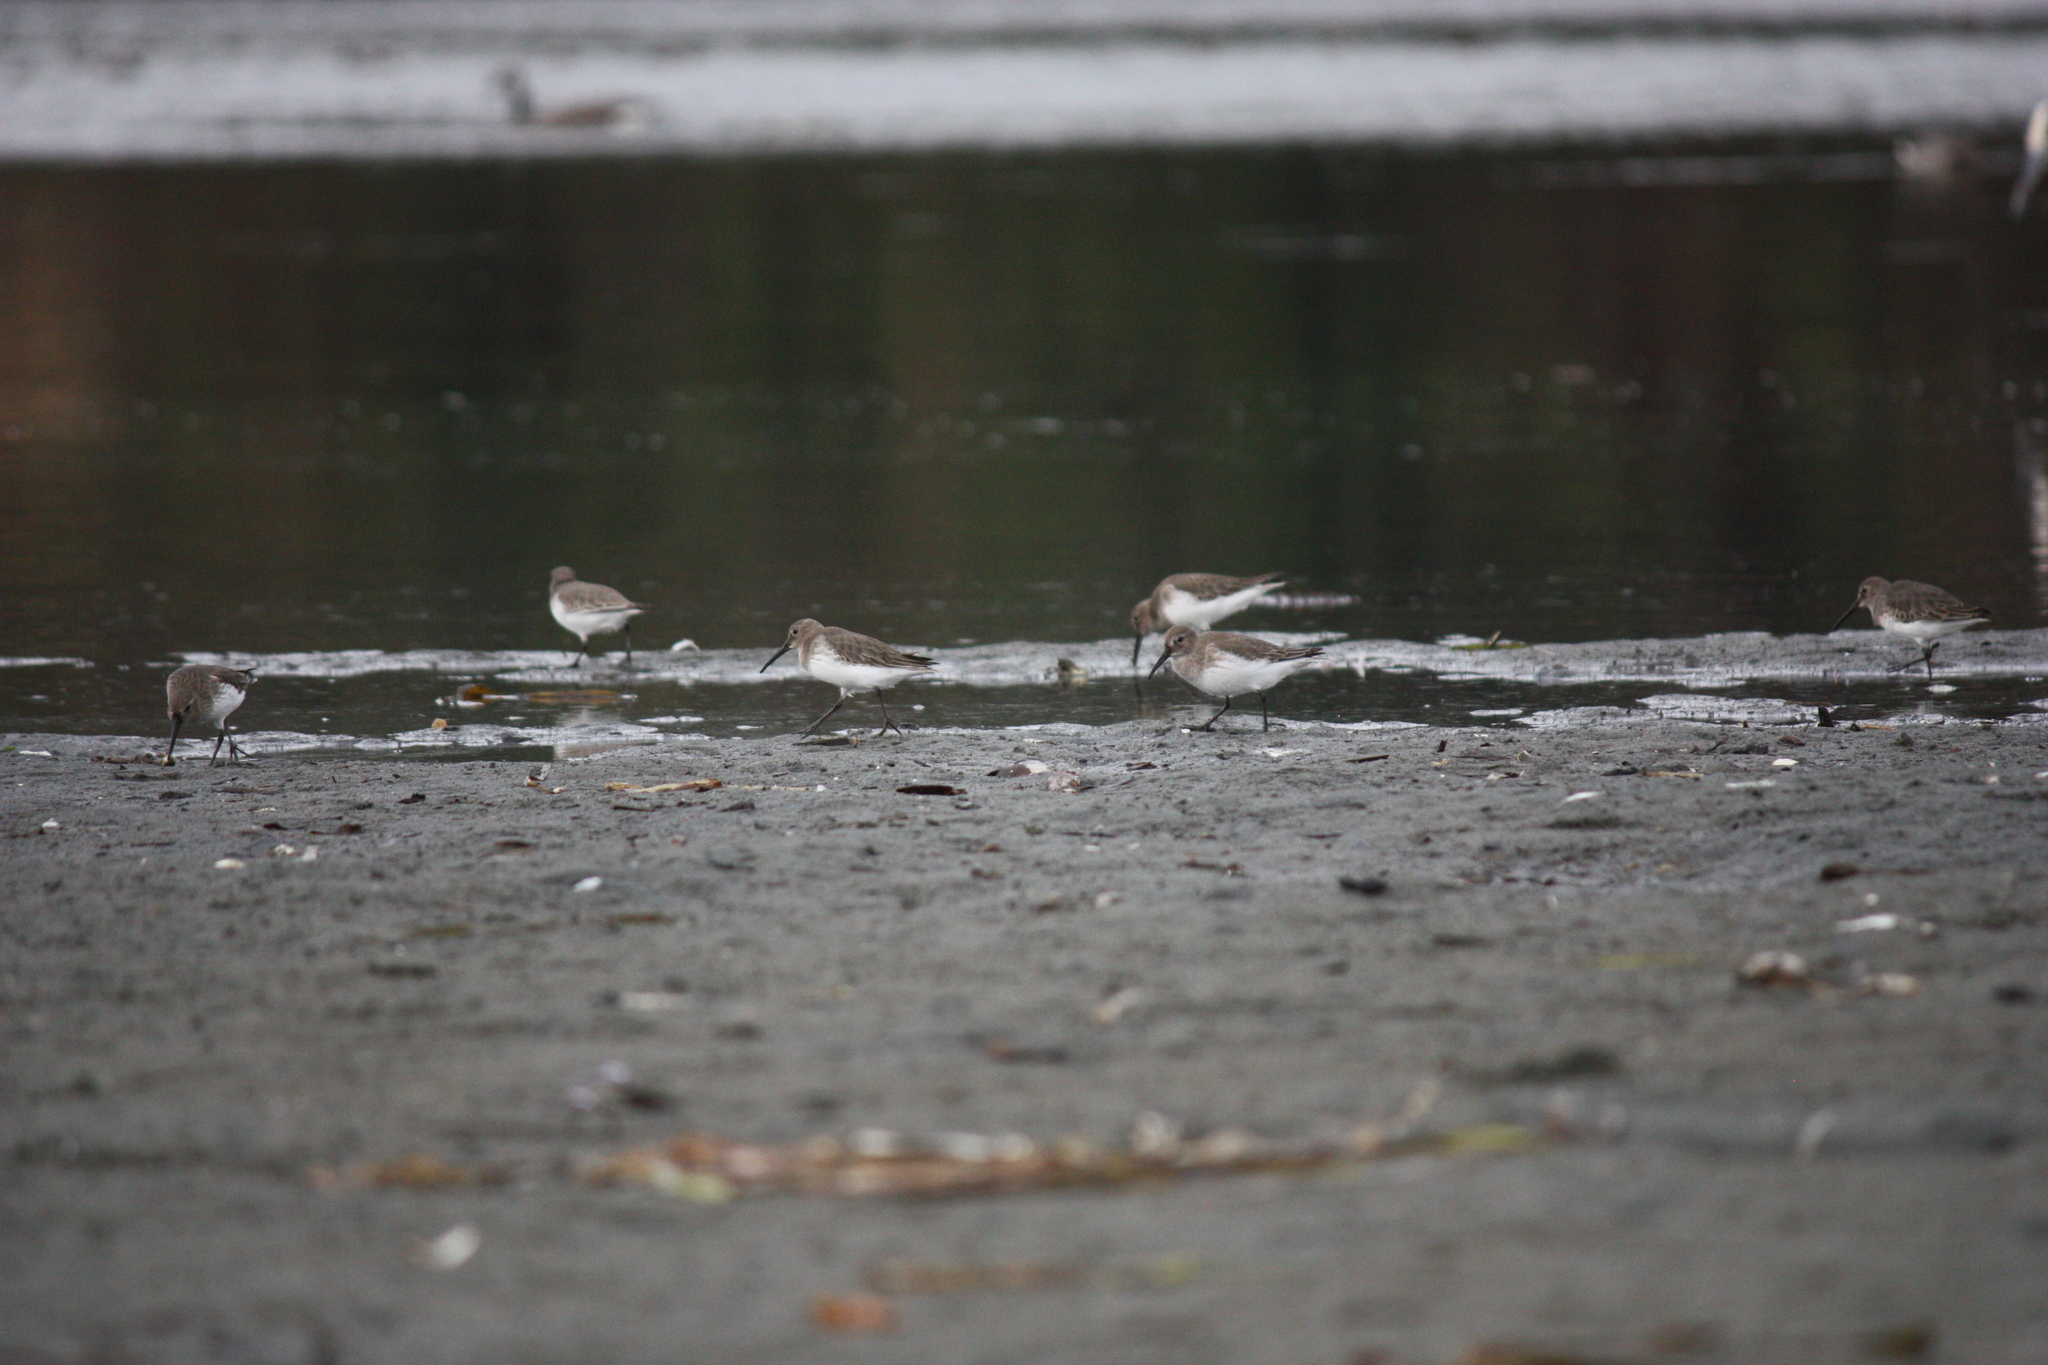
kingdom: Animalia
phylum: Chordata
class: Aves
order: Charadriiformes
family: Scolopacidae
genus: Calidris
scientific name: Calidris alpina
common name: Dunlin
